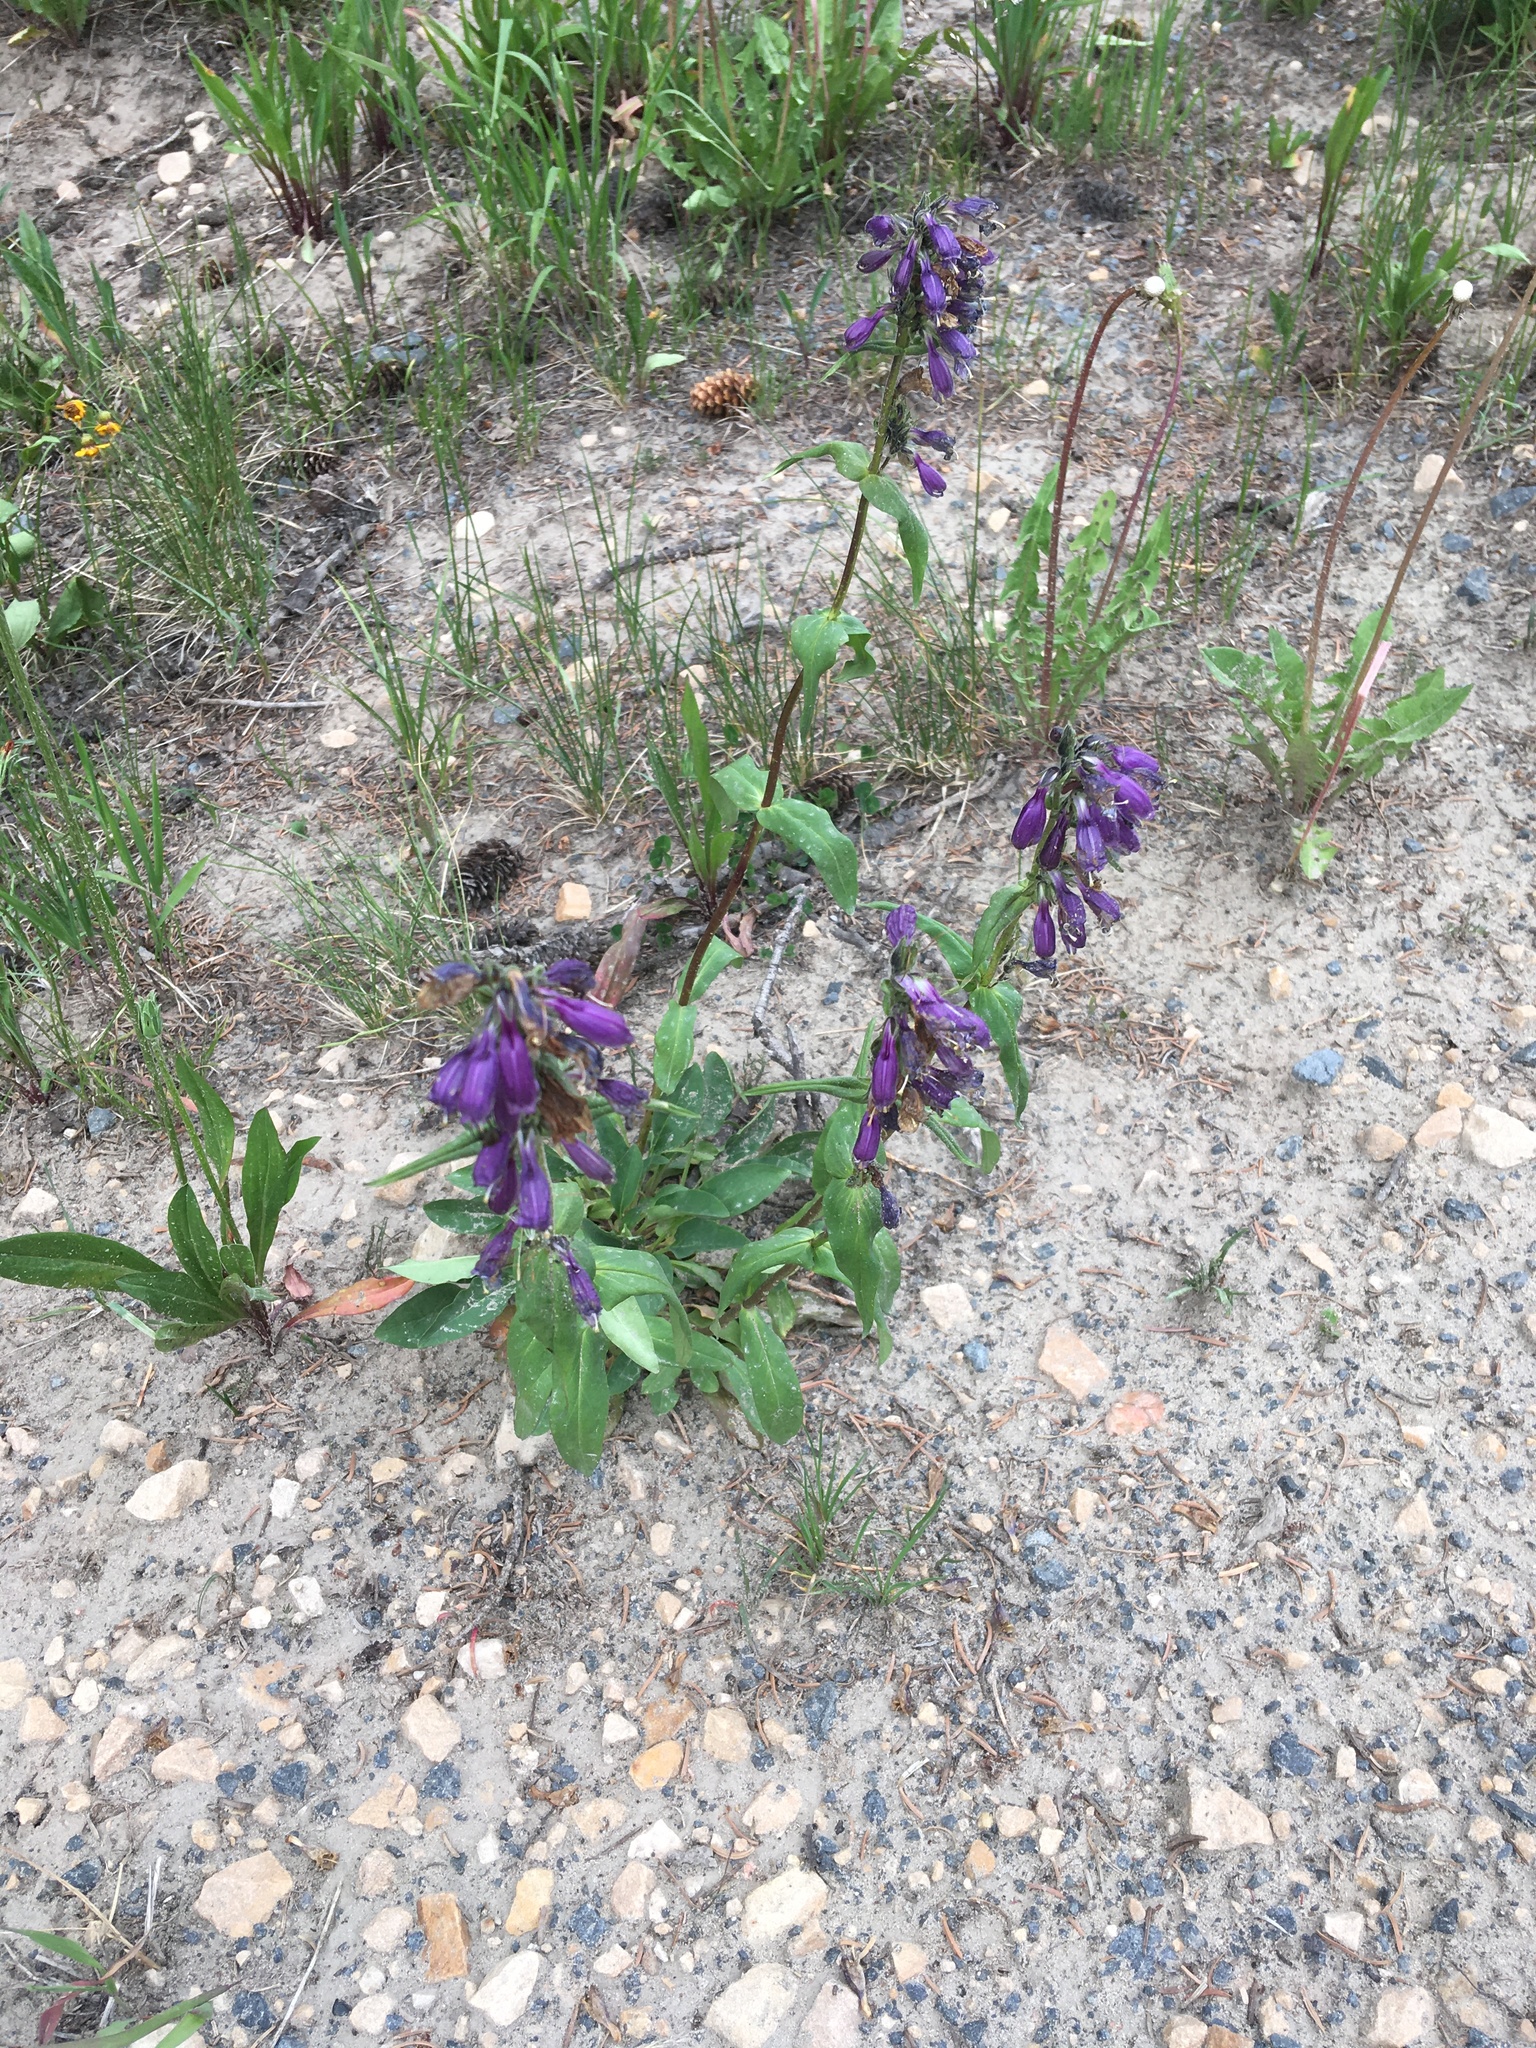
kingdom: Plantae
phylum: Tracheophyta
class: Magnoliopsida
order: Lamiales
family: Plantaginaceae
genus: Penstemon
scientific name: Penstemon whippleanus
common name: Whipple's penstemon
